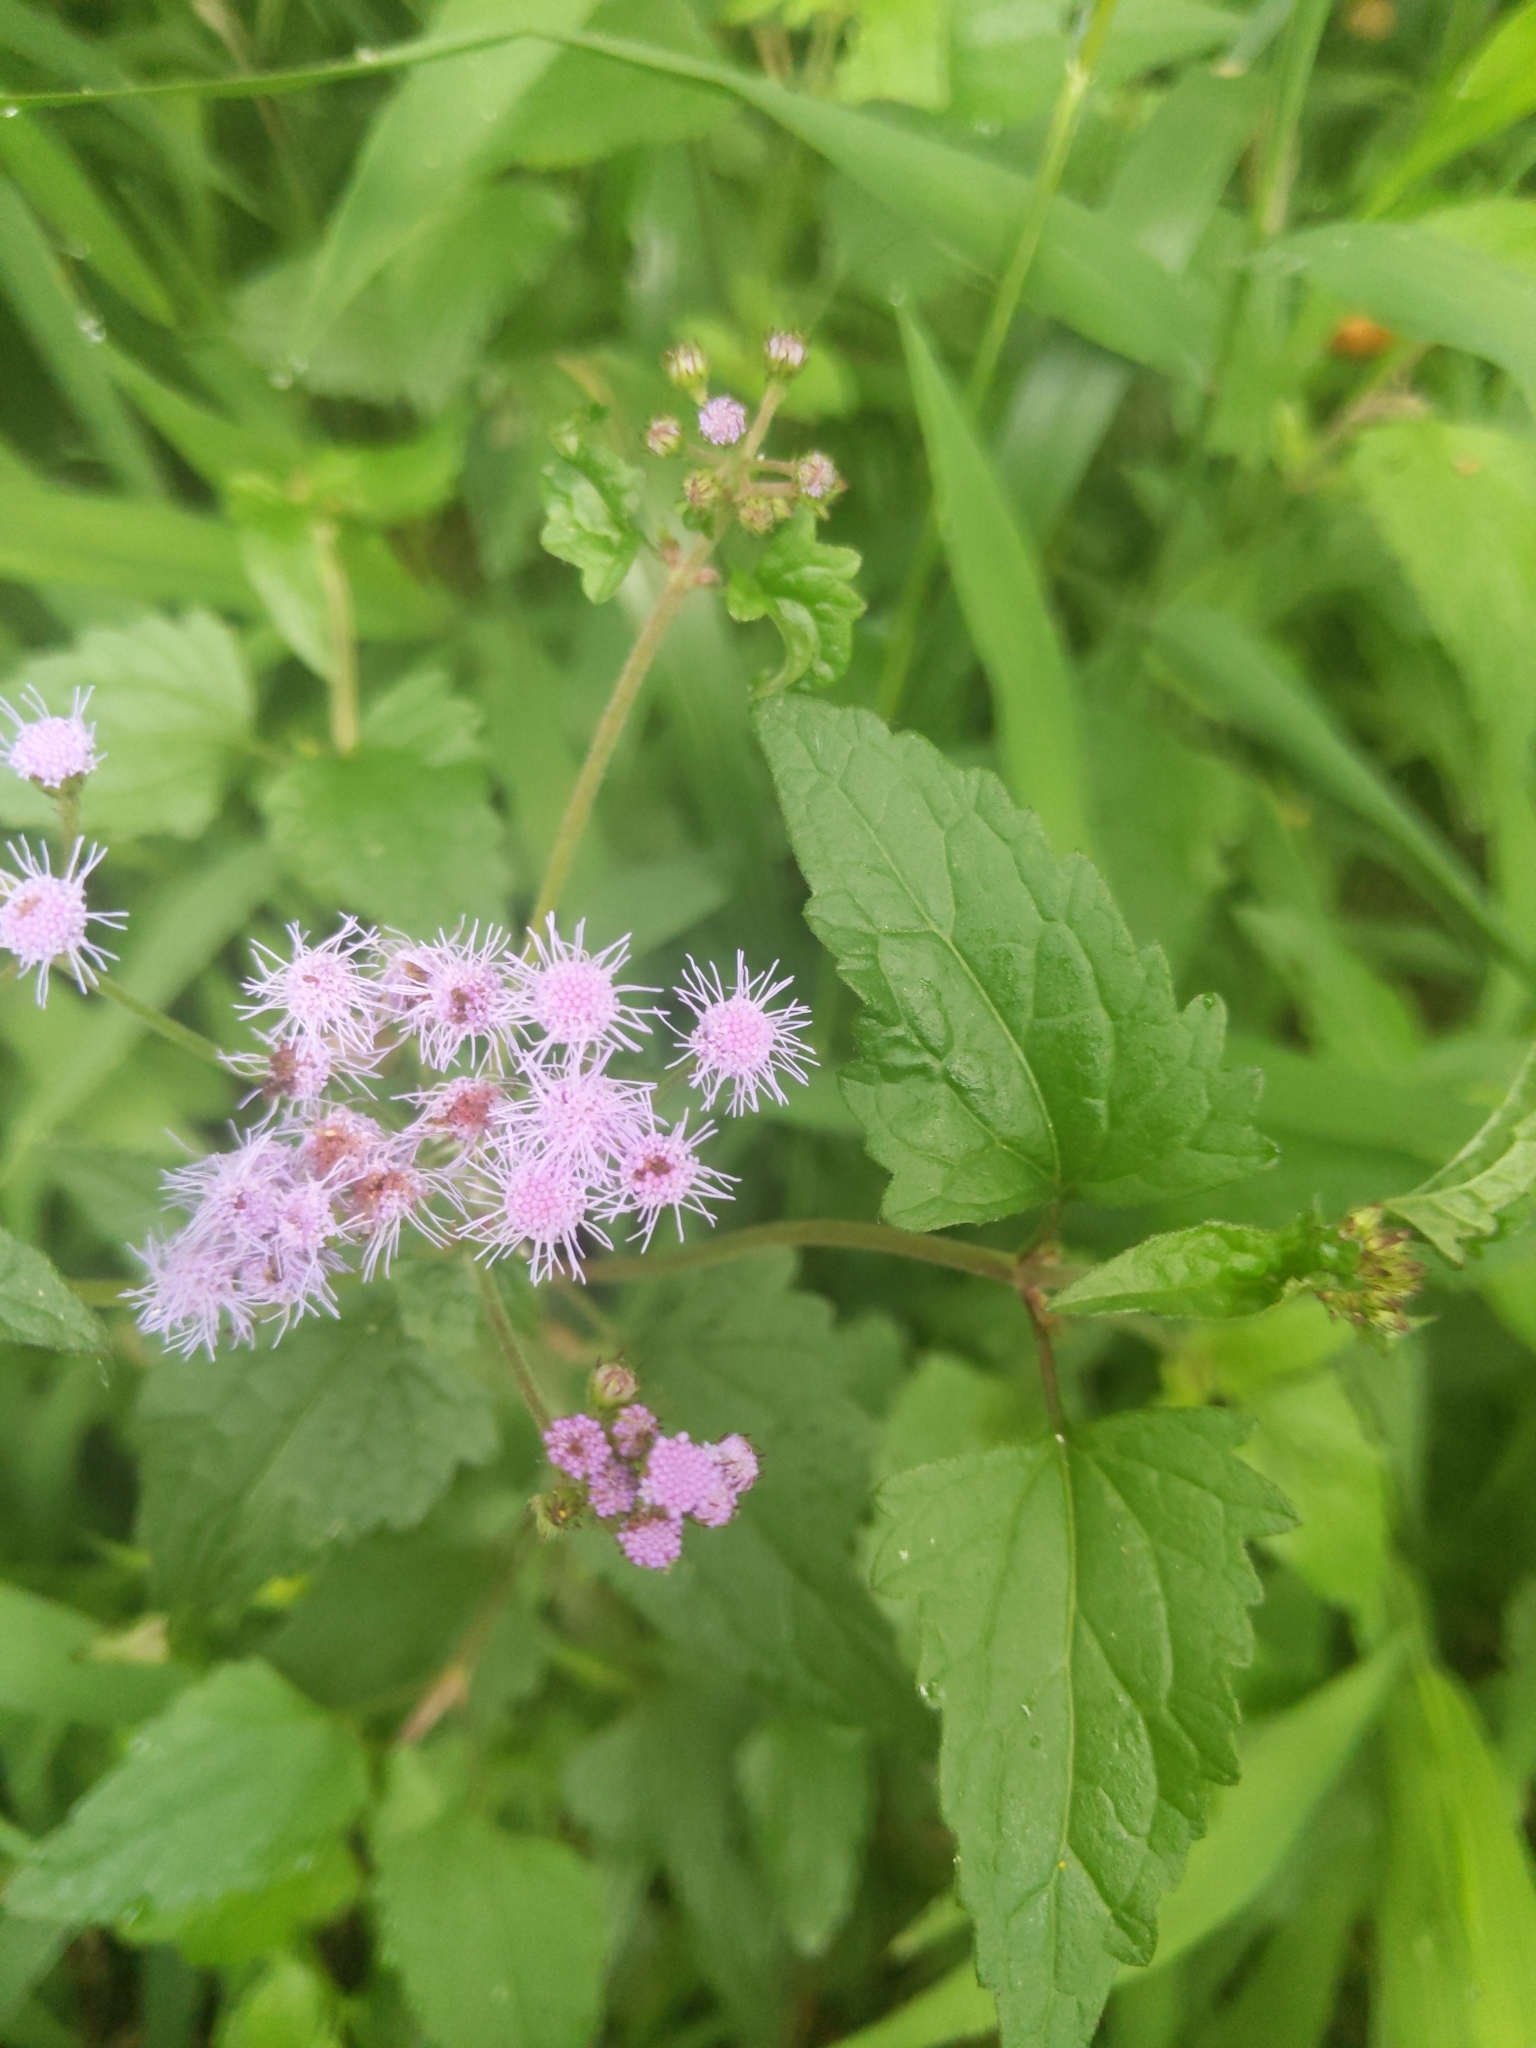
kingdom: Plantae
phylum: Tracheophyta
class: Magnoliopsida
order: Asterales
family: Asteraceae
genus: Conoclinium
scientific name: Conoclinium coelestinum
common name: Blue mistflower
